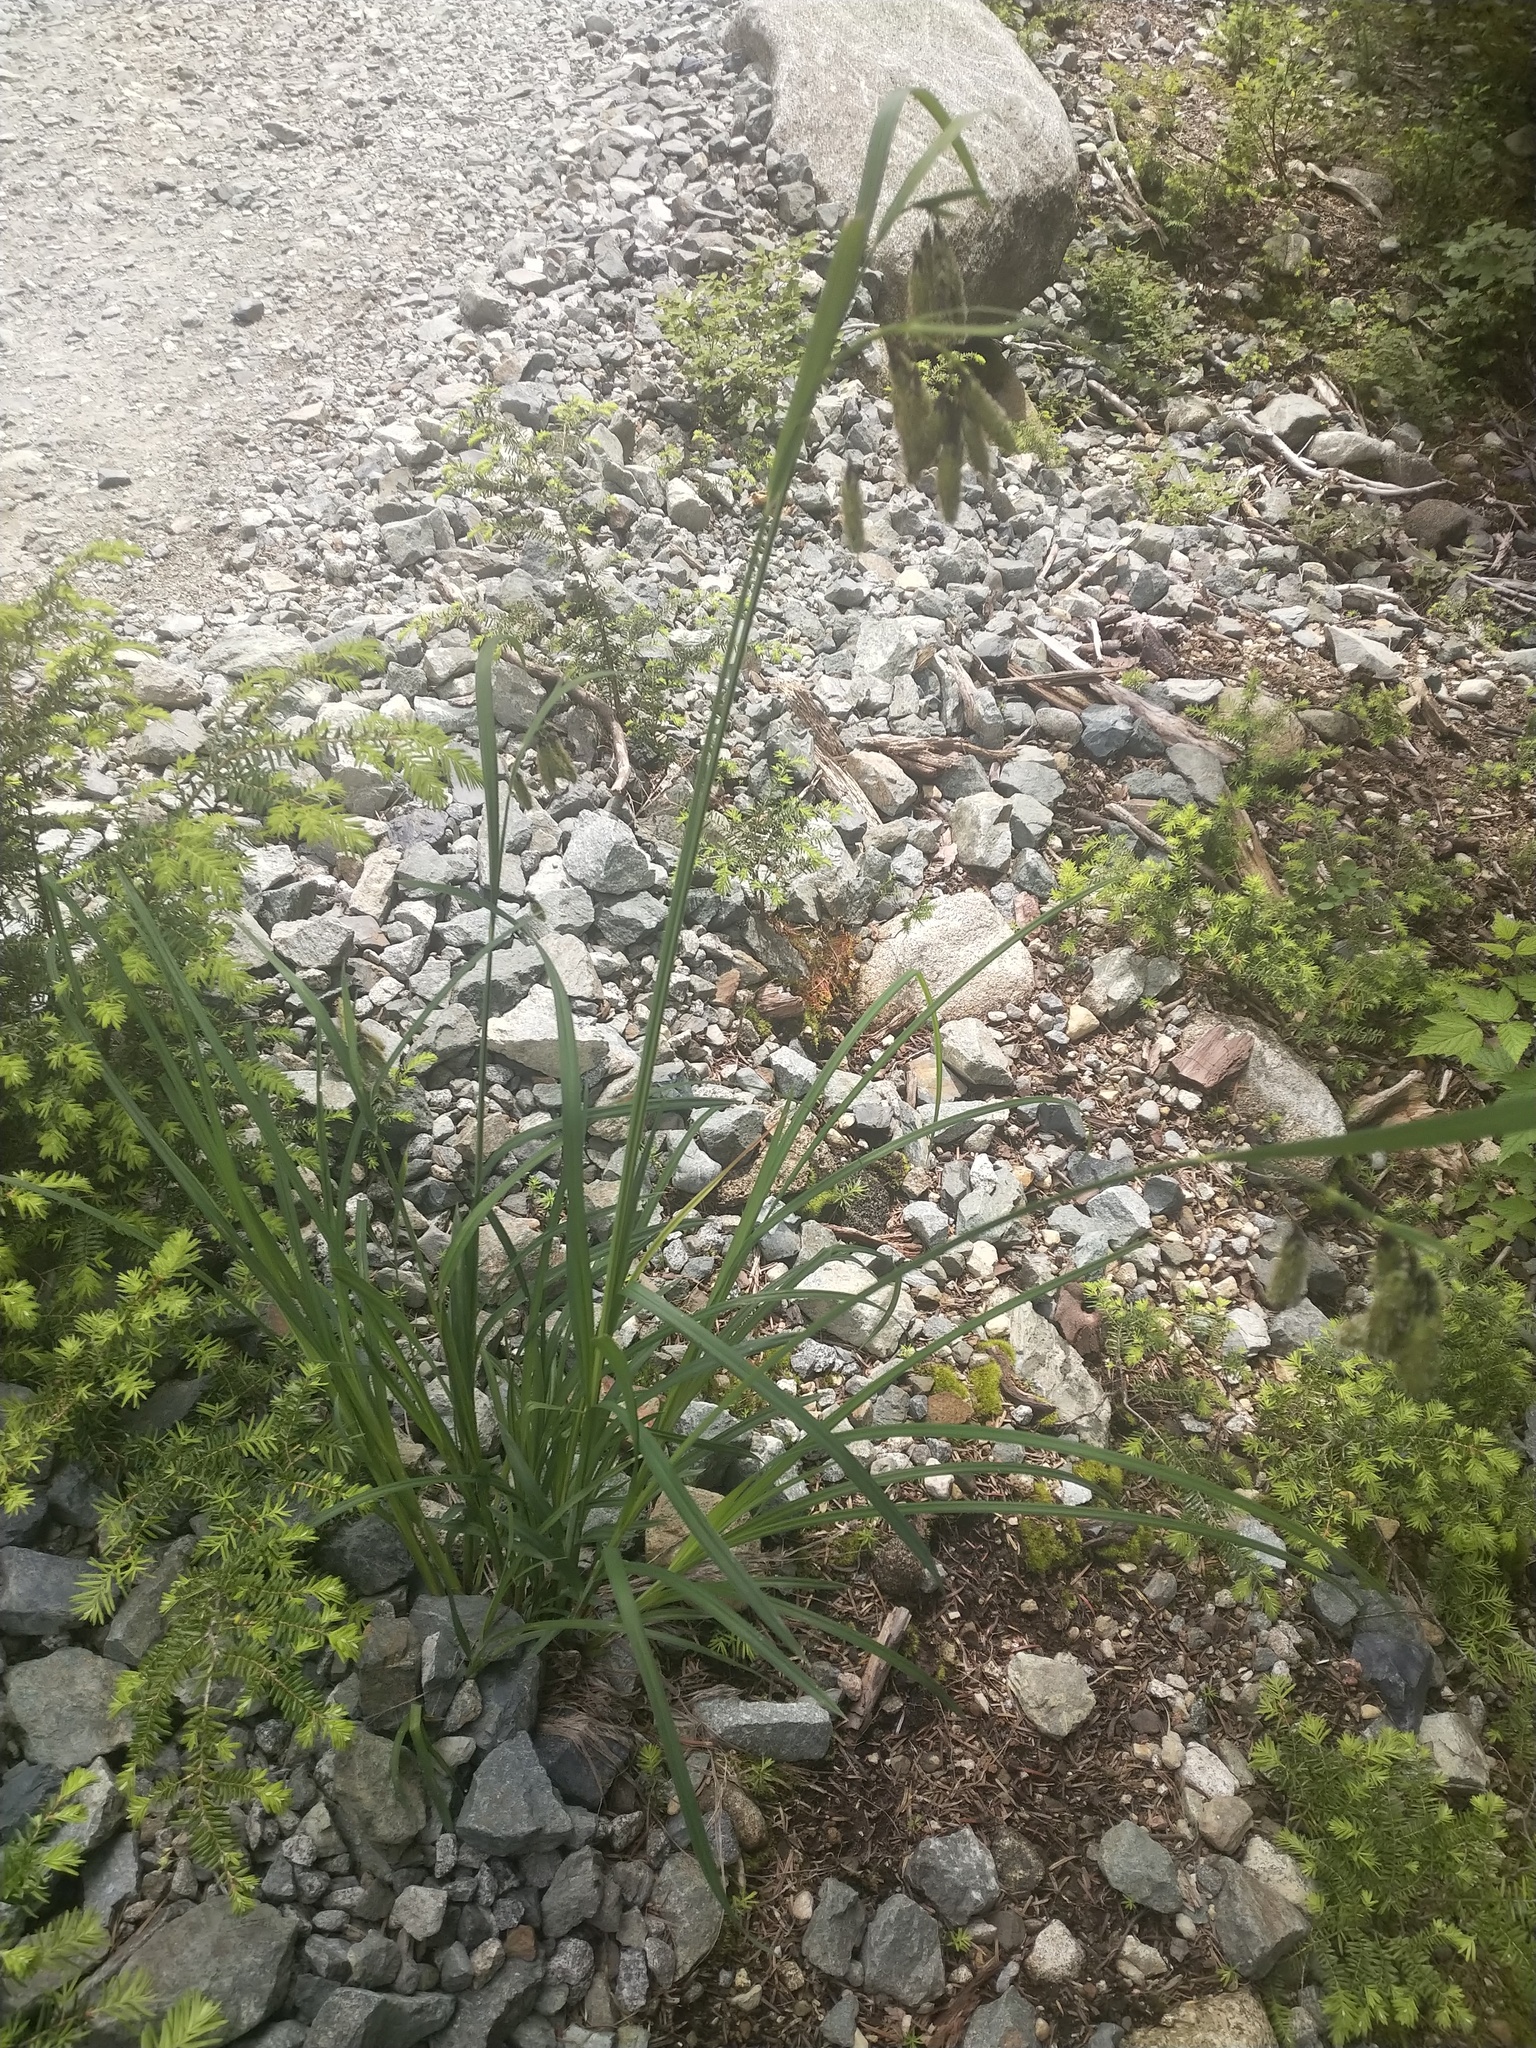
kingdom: Plantae
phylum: Tracheophyta
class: Liliopsida
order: Poales
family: Cyperaceae
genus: Carex
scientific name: Carex mertensii
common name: Mertens' sedge
